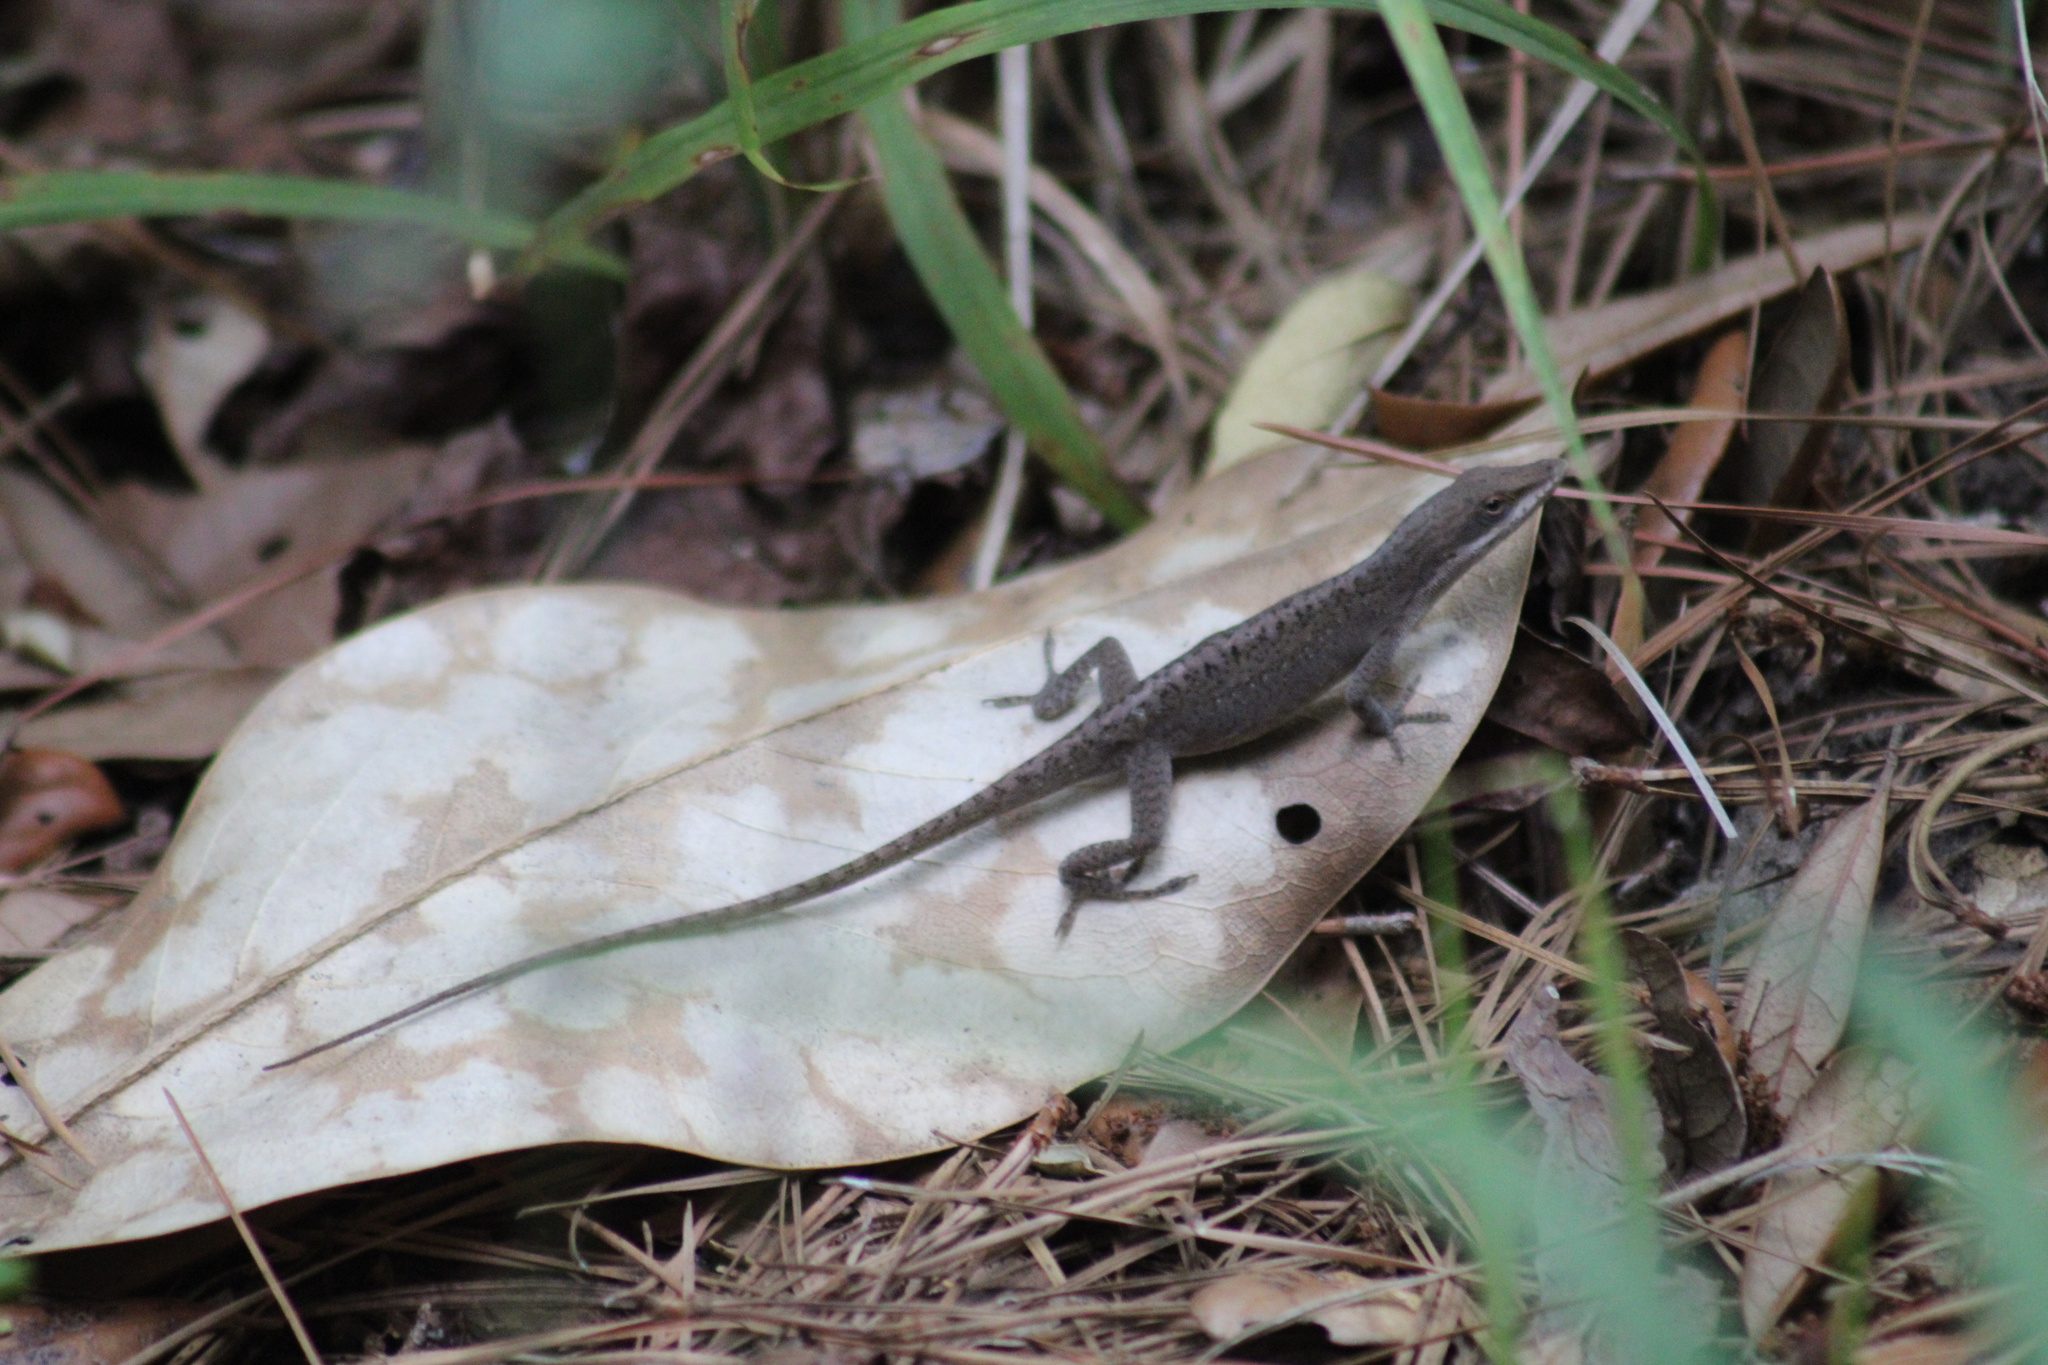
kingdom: Animalia
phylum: Chordata
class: Squamata
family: Dactyloidae
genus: Anolis
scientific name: Anolis carolinensis
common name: Green anole
